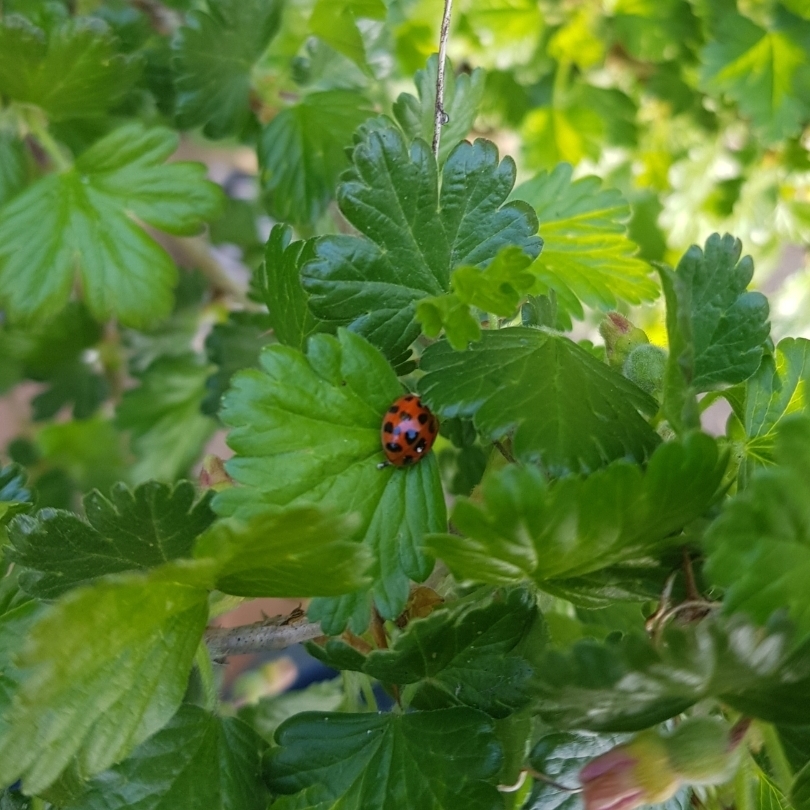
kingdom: Animalia
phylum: Arthropoda
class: Insecta
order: Coleoptera
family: Coccinellidae
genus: Harmonia
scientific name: Harmonia axyridis
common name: Harlequin ladybird
